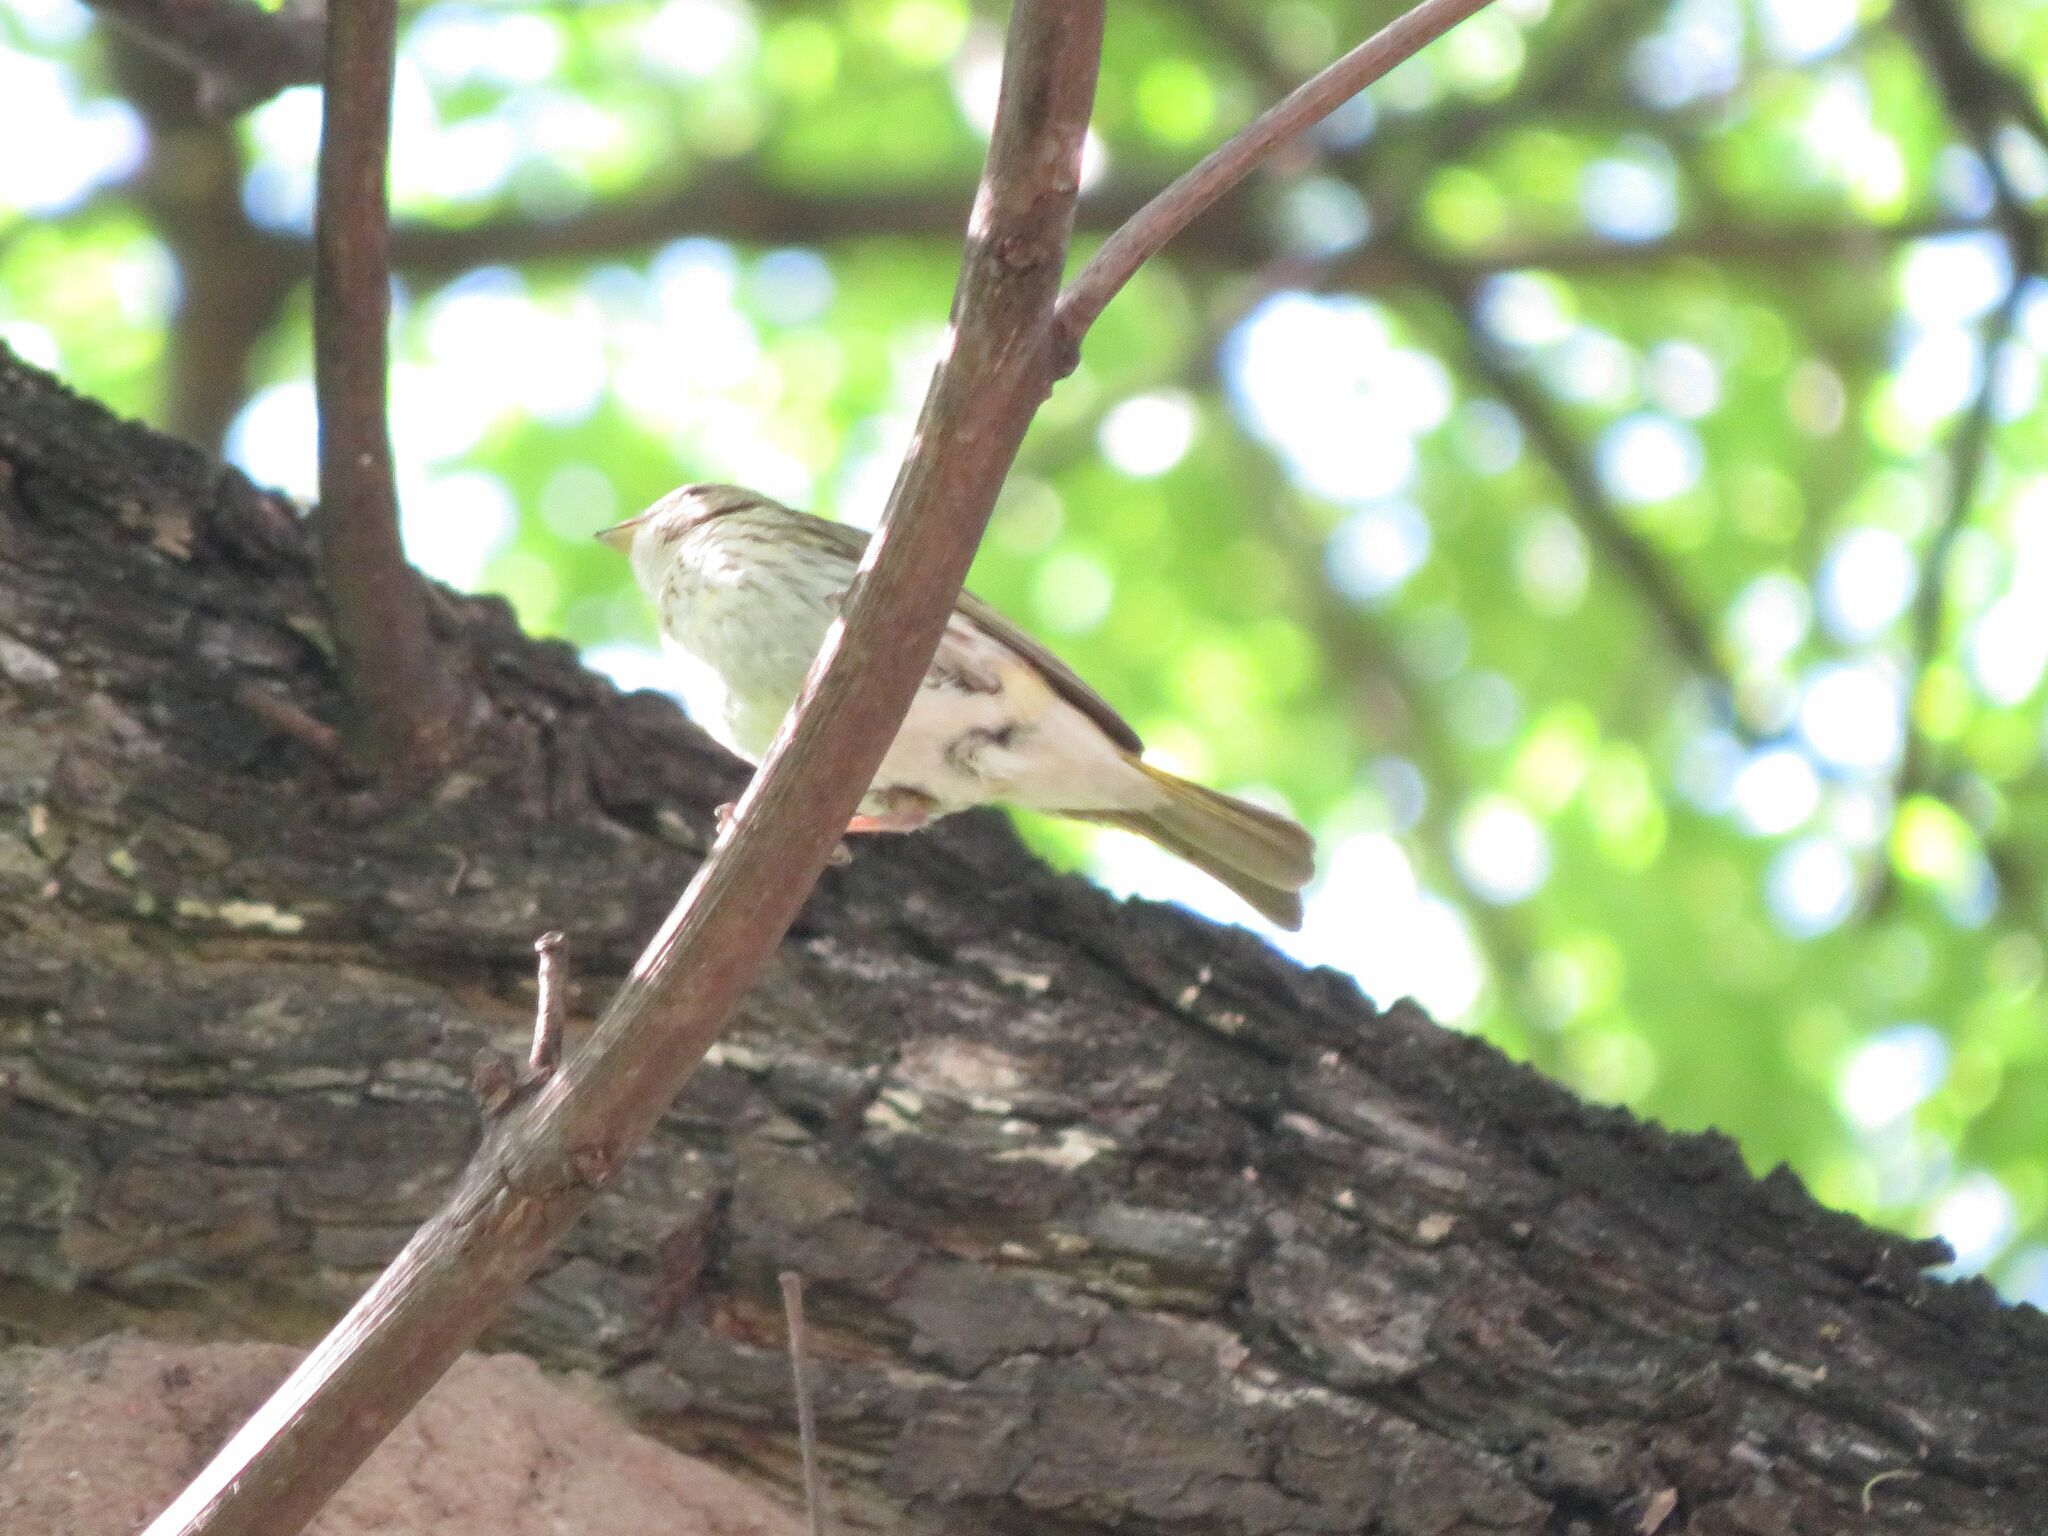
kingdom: Animalia
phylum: Chordata
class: Aves
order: Passeriformes
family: Thraupidae
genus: Sicalis
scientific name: Sicalis flaveola
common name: Saffron finch
